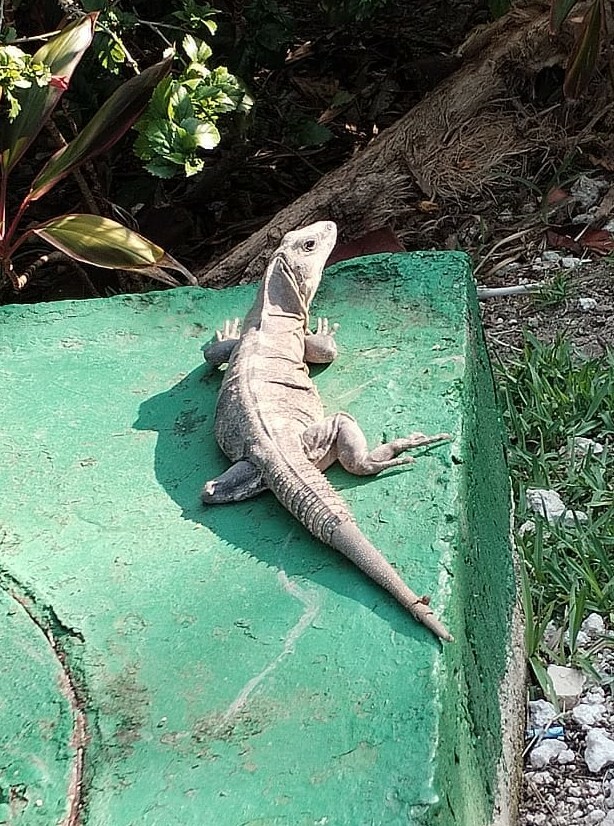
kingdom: Animalia
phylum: Chordata
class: Squamata
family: Iguanidae
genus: Ctenosaura
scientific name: Ctenosaura similis
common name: Black spiny-tailed iguana
